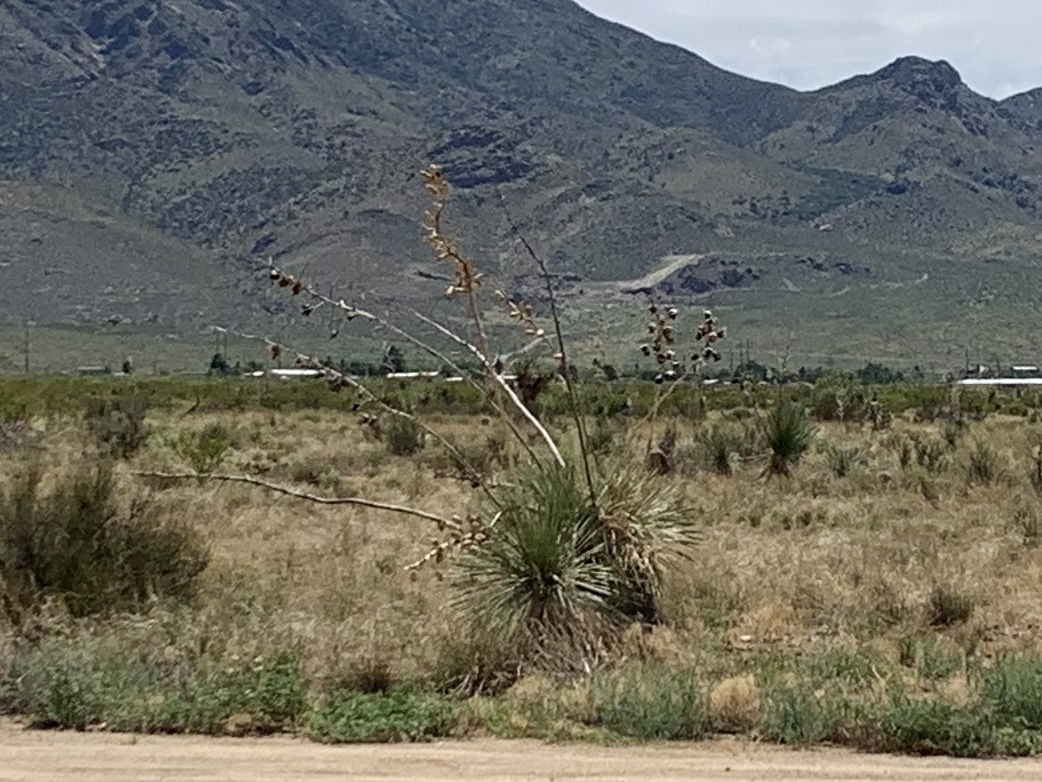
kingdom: Plantae
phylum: Tracheophyta
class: Liliopsida
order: Asparagales
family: Asparagaceae
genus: Yucca
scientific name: Yucca elata
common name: Palmella
